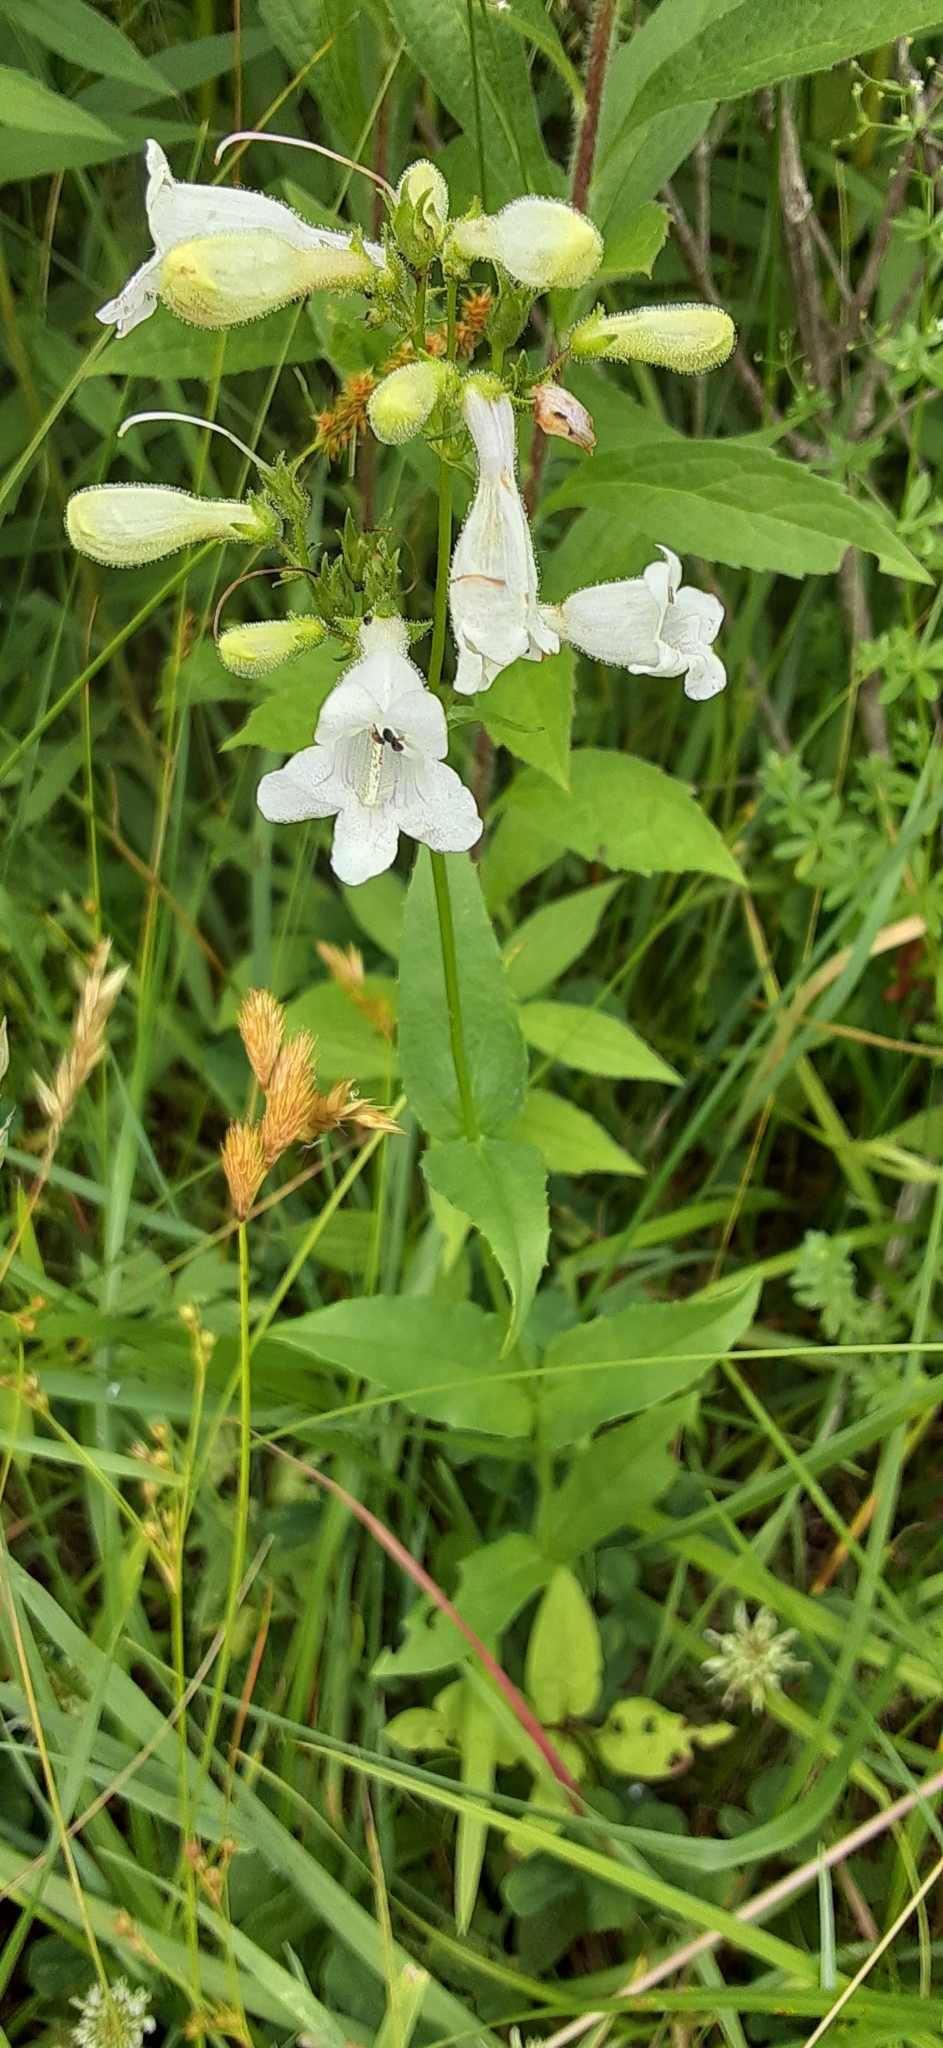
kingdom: Plantae
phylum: Tracheophyta
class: Magnoliopsida
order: Lamiales
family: Plantaginaceae
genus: Penstemon
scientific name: Penstemon digitalis
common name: Foxglove beardtongue
